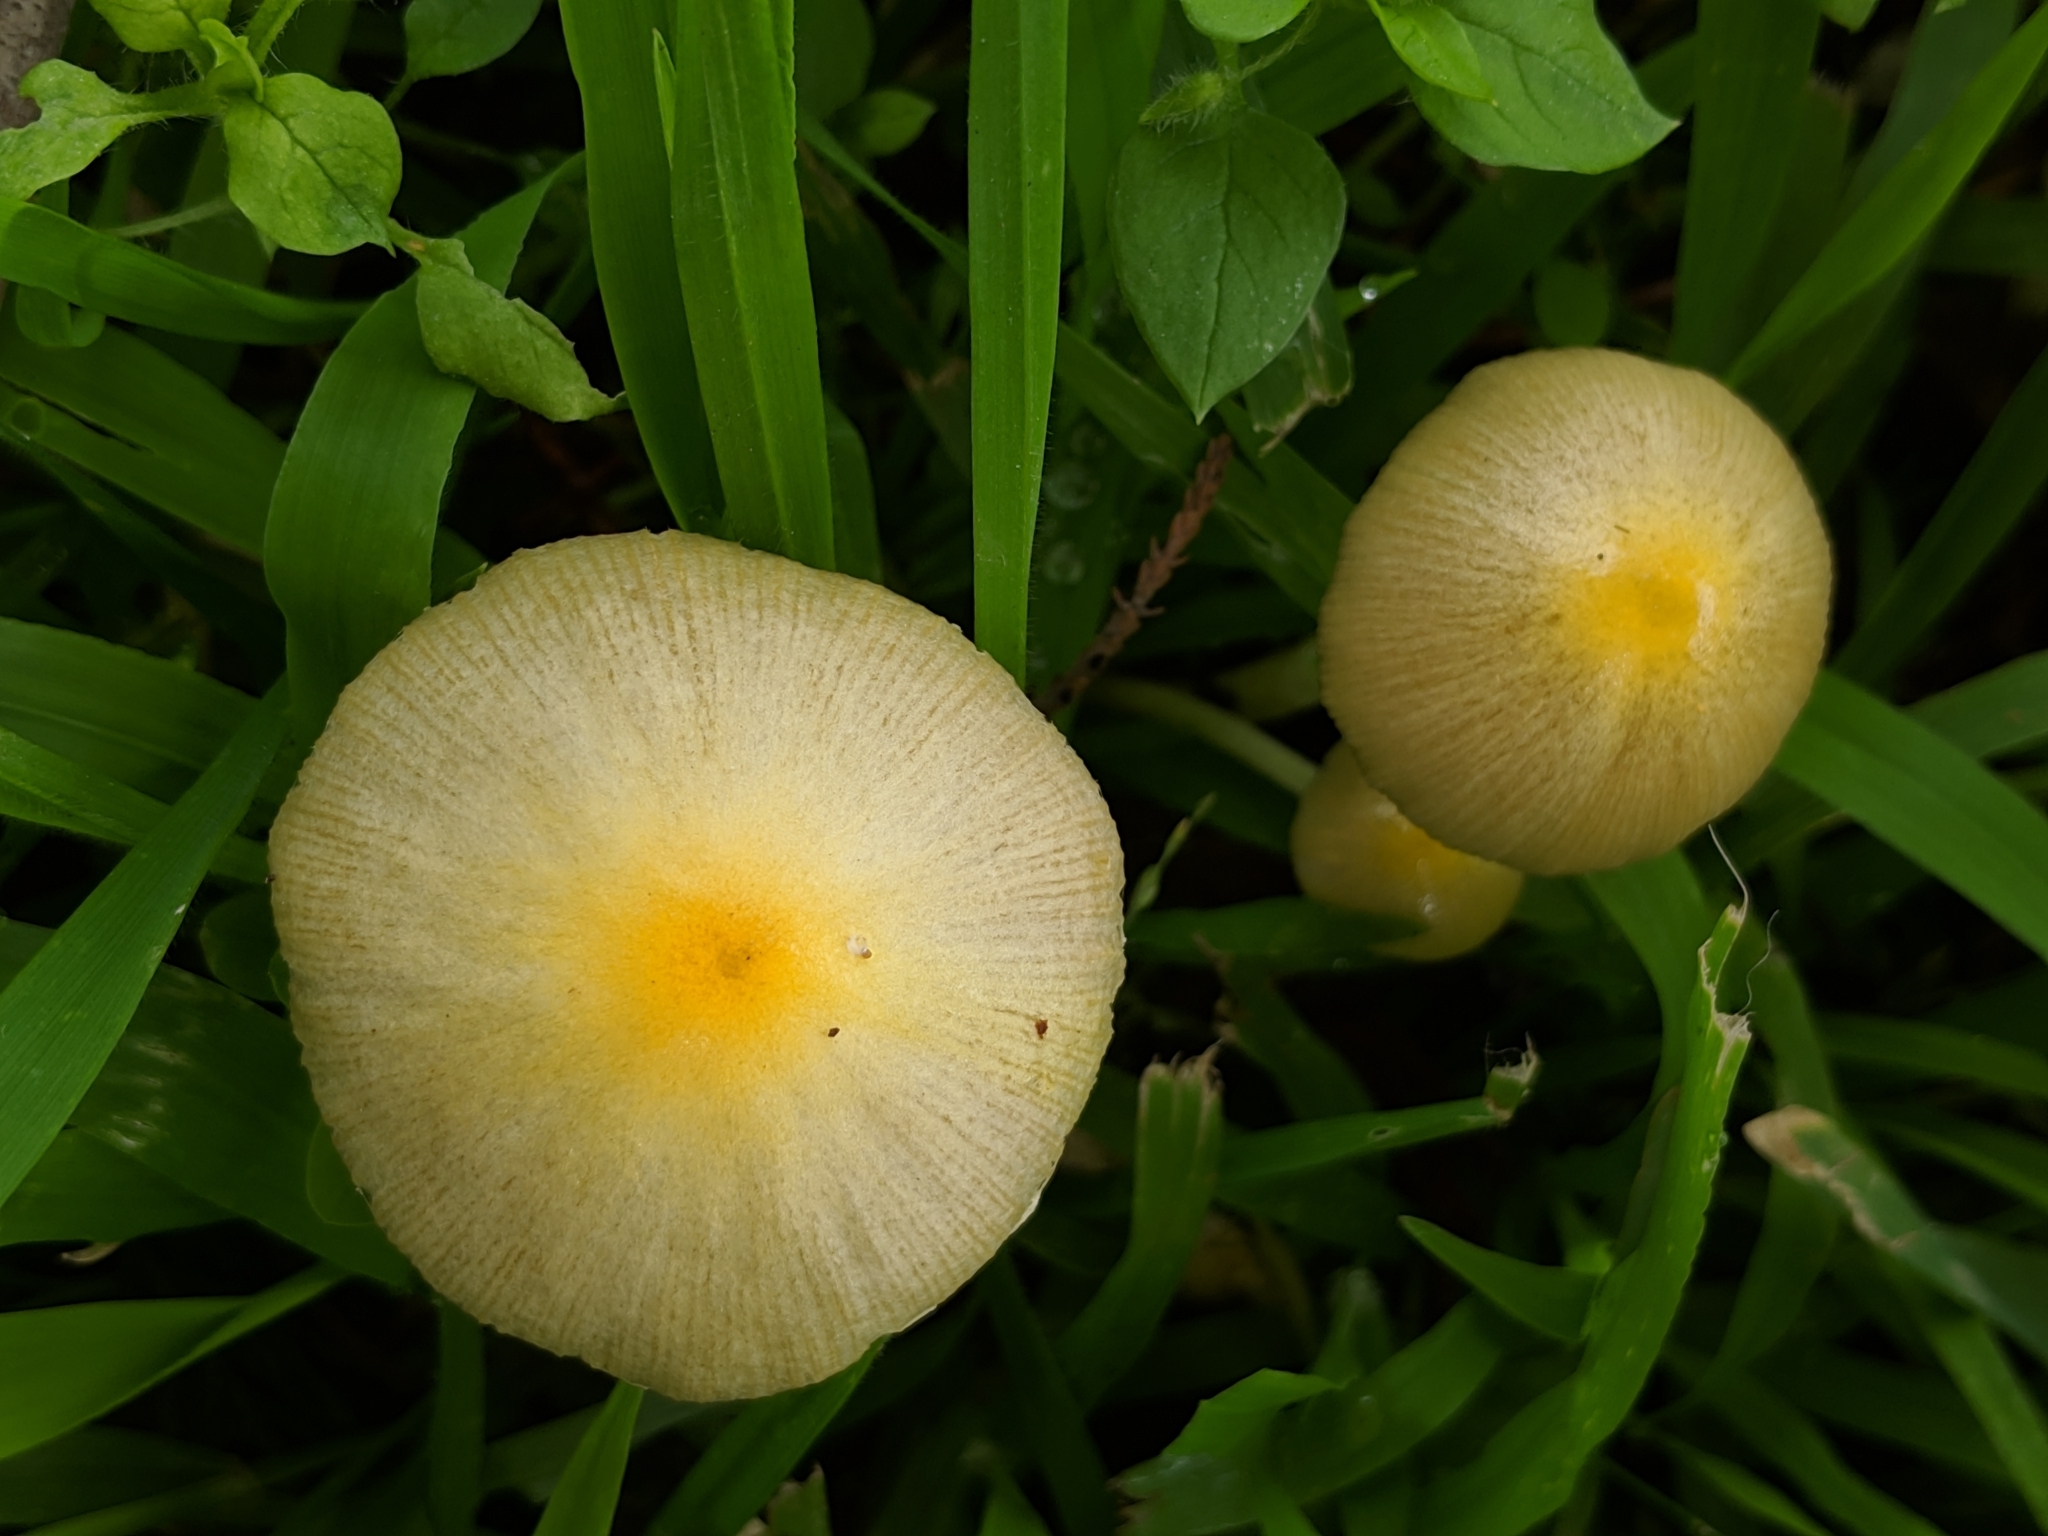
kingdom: Fungi
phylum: Basidiomycota
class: Agaricomycetes
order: Agaricales
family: Bolbitiaceae
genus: Bolbitius
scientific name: Bolbitius titubans
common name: Yellow fieldcap
